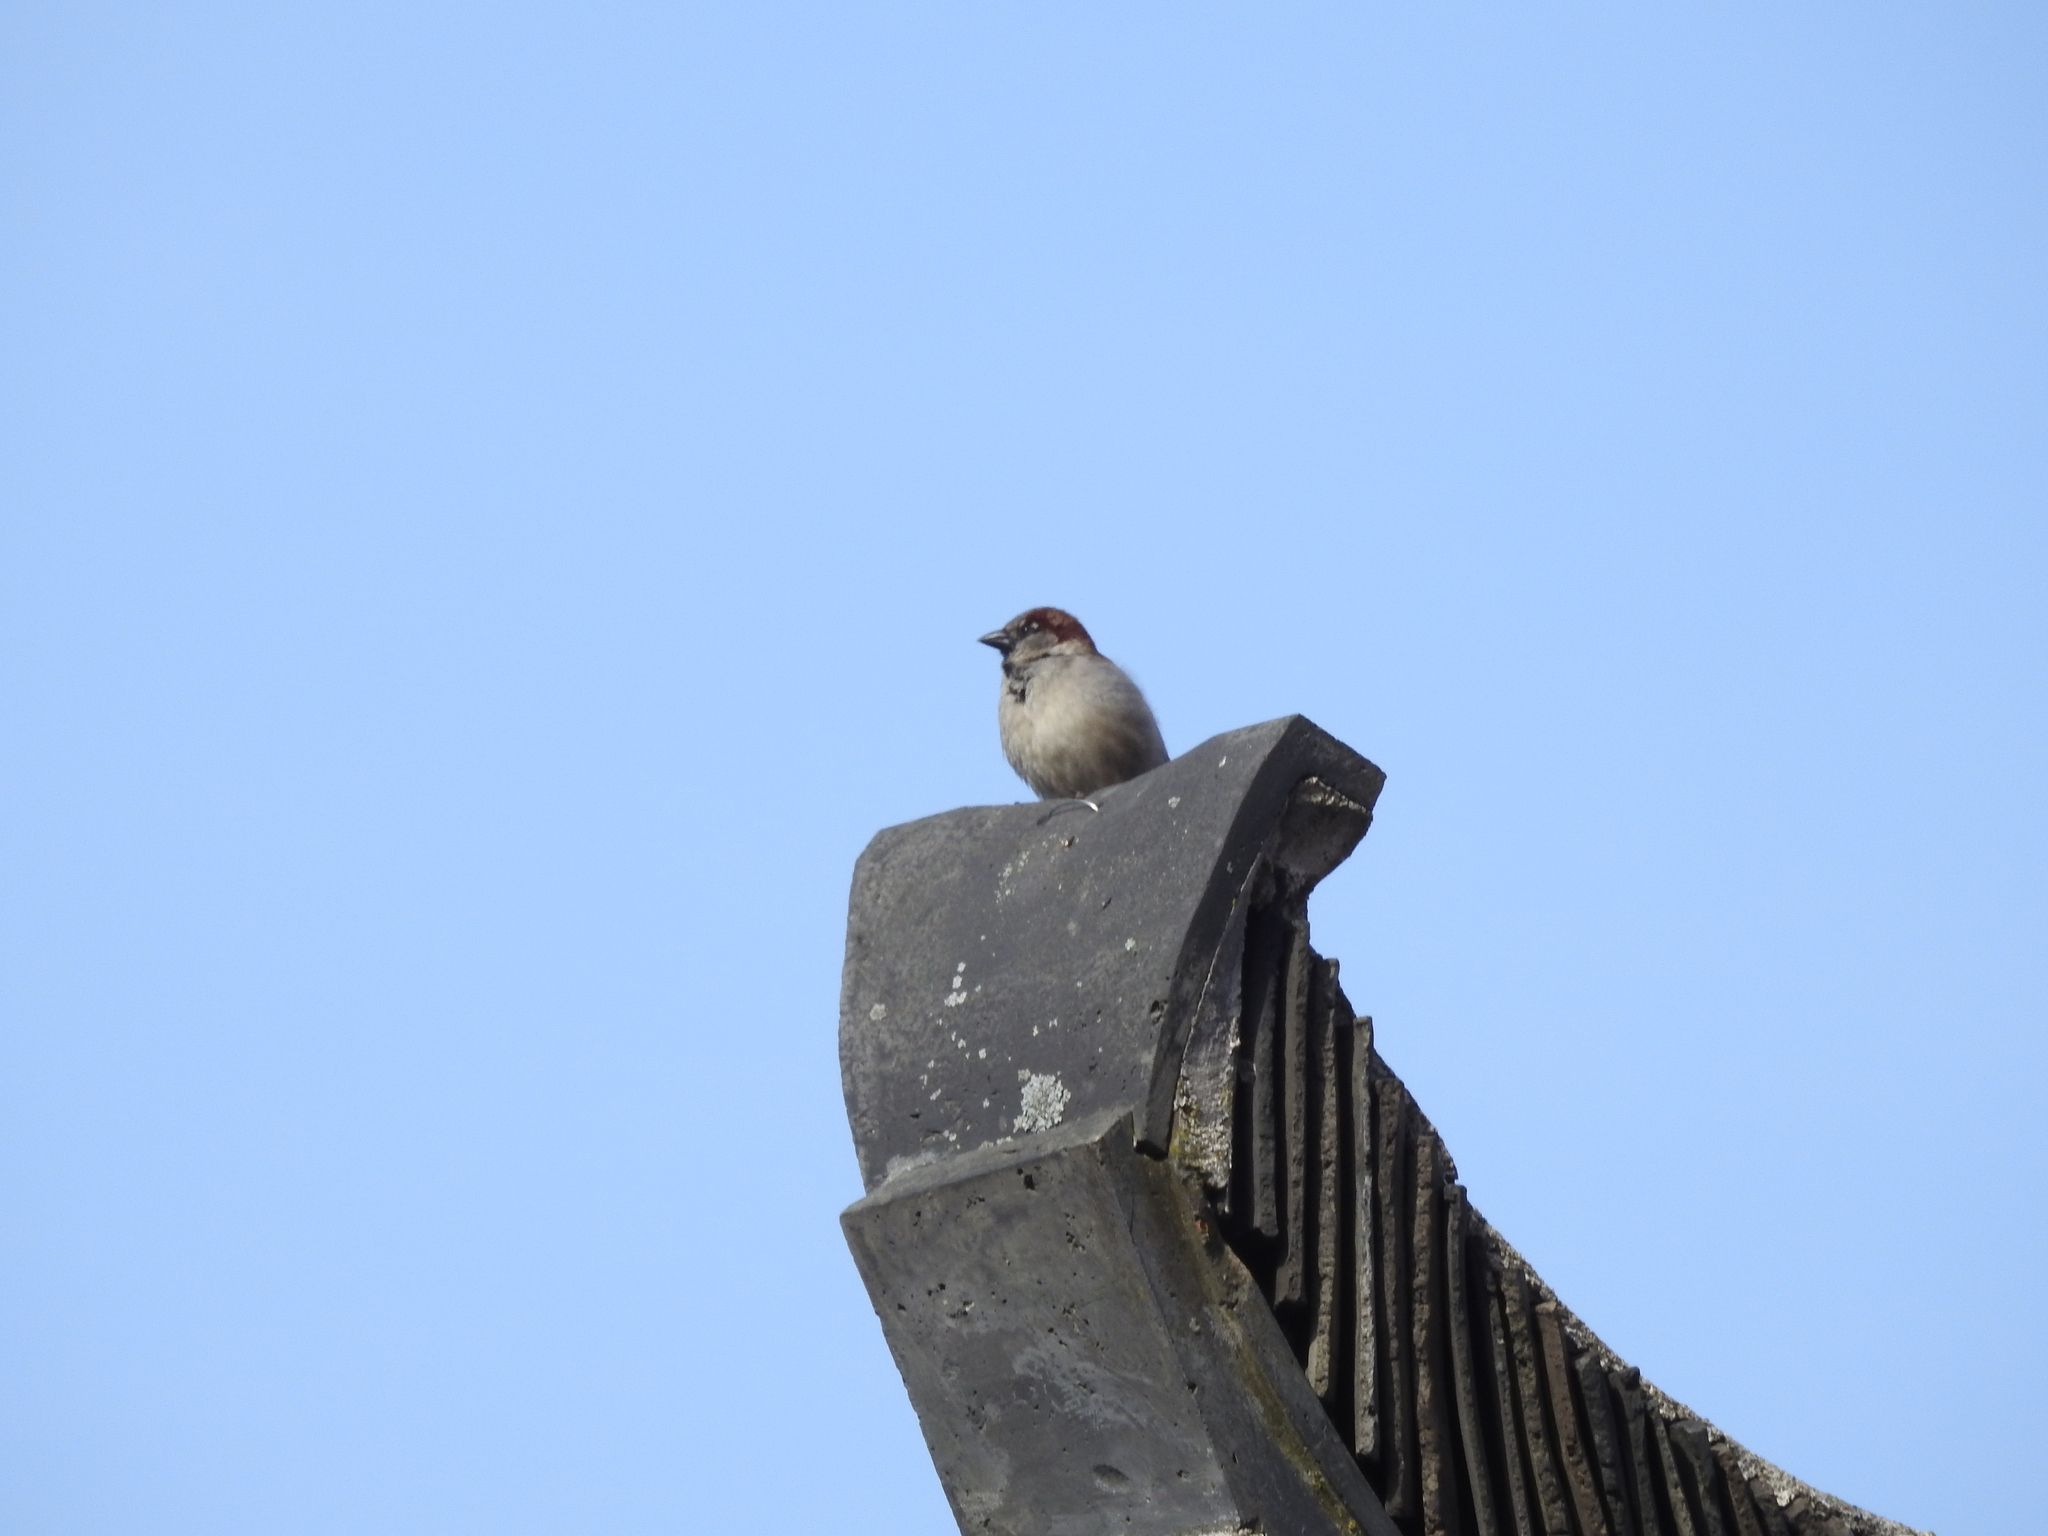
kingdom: Animalia
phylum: Chordata
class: Aves
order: Passeriformes
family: Passeridae
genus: Passer
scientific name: Passer domesticus
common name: House sparrow
